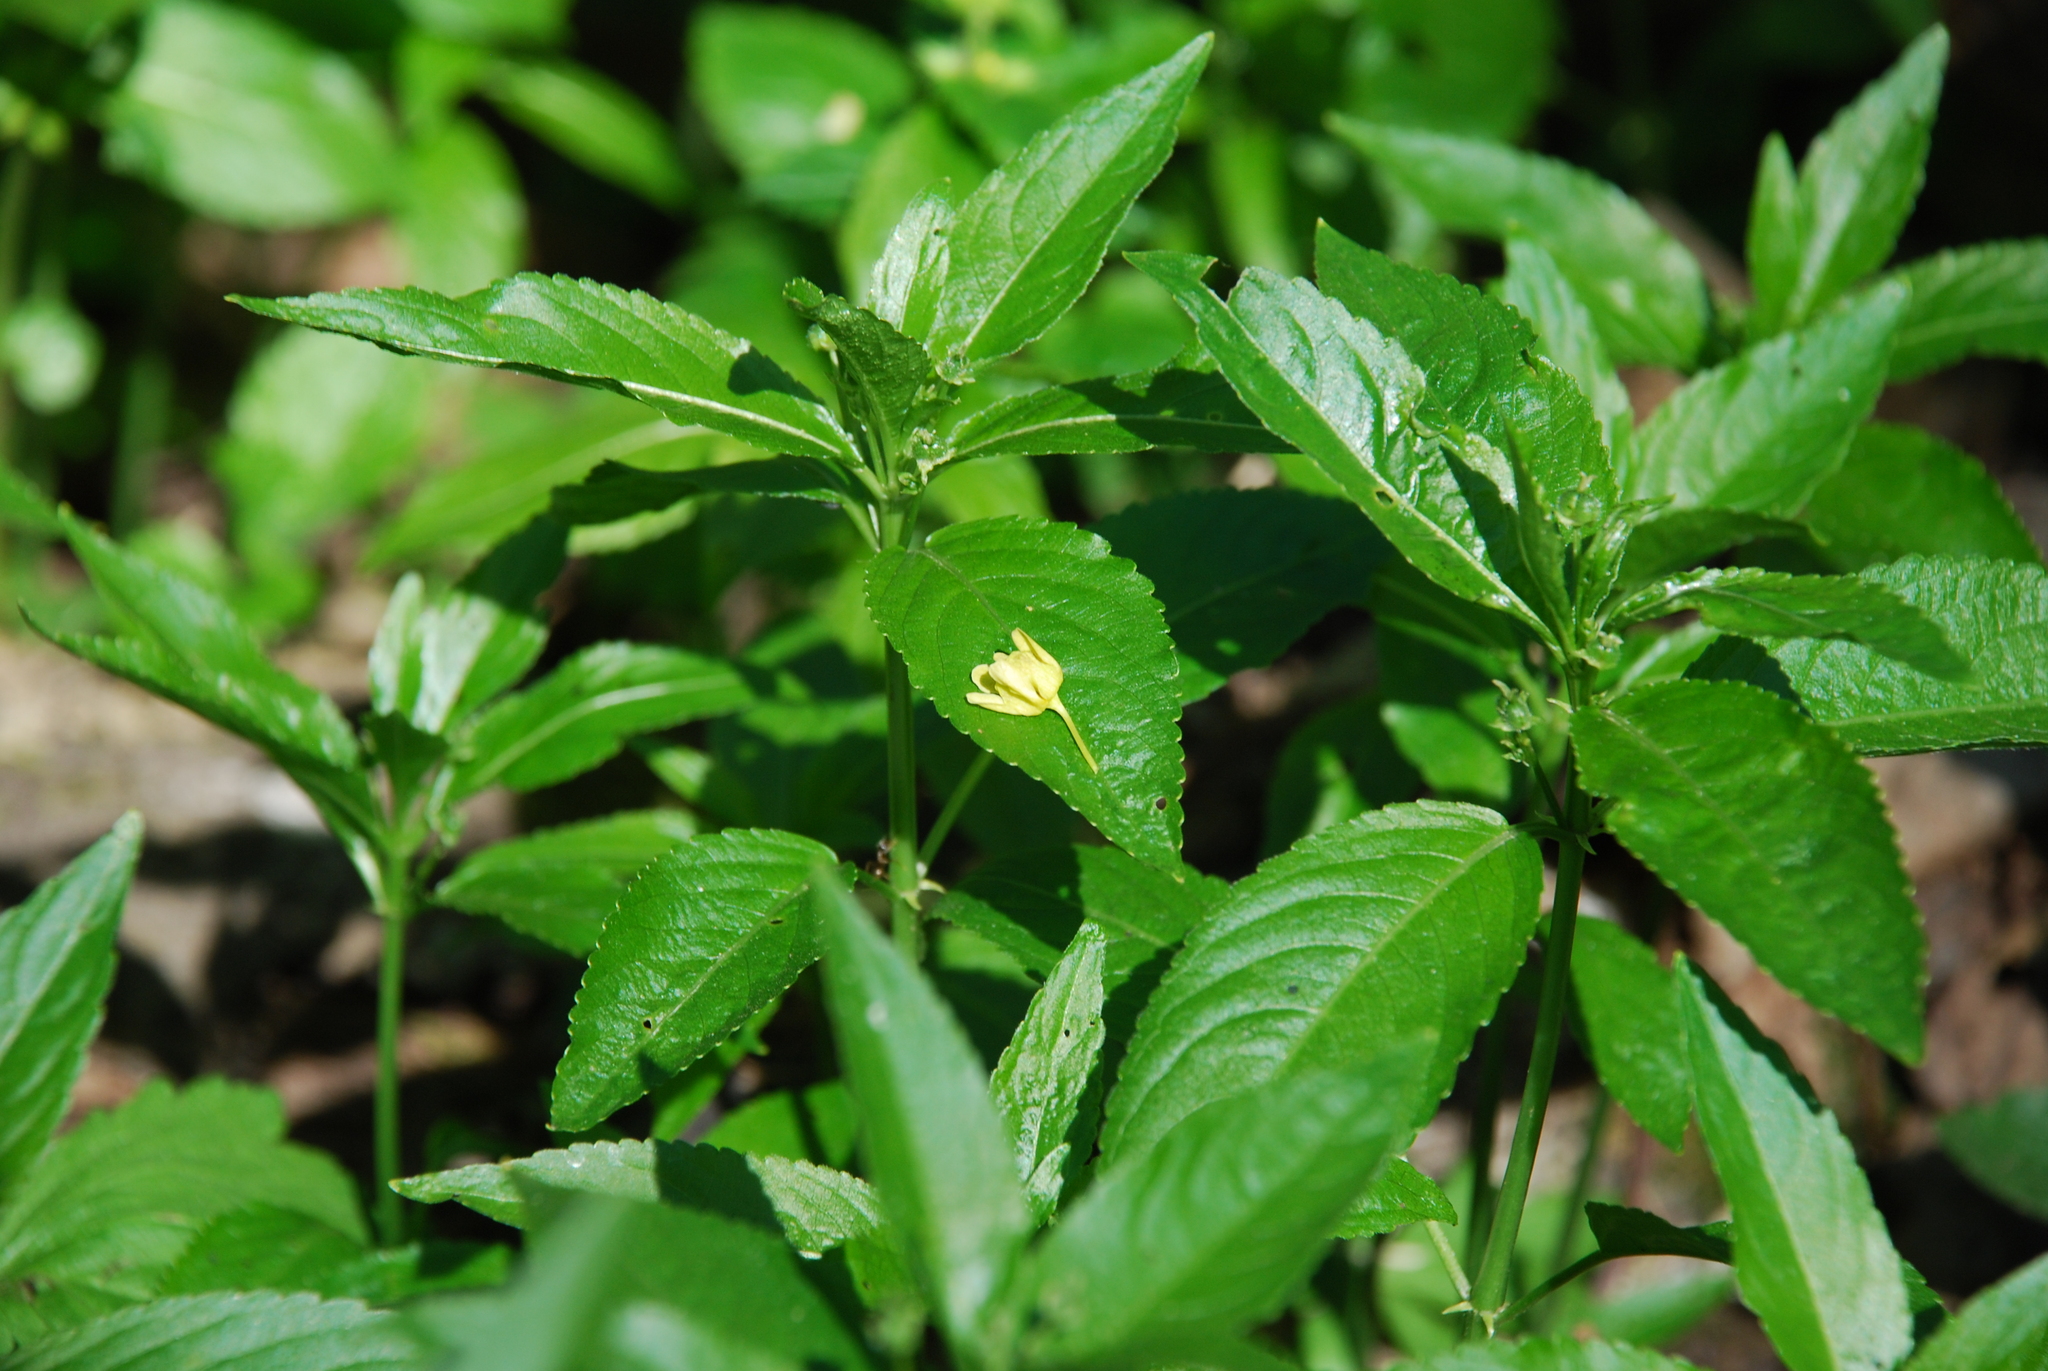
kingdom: Plantae
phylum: Tracheophyta
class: Magnoliopsida
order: Malpighiales
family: Euphorbiaceae
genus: Mercurialis
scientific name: Mercurialis perennis
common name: Dog mercury
